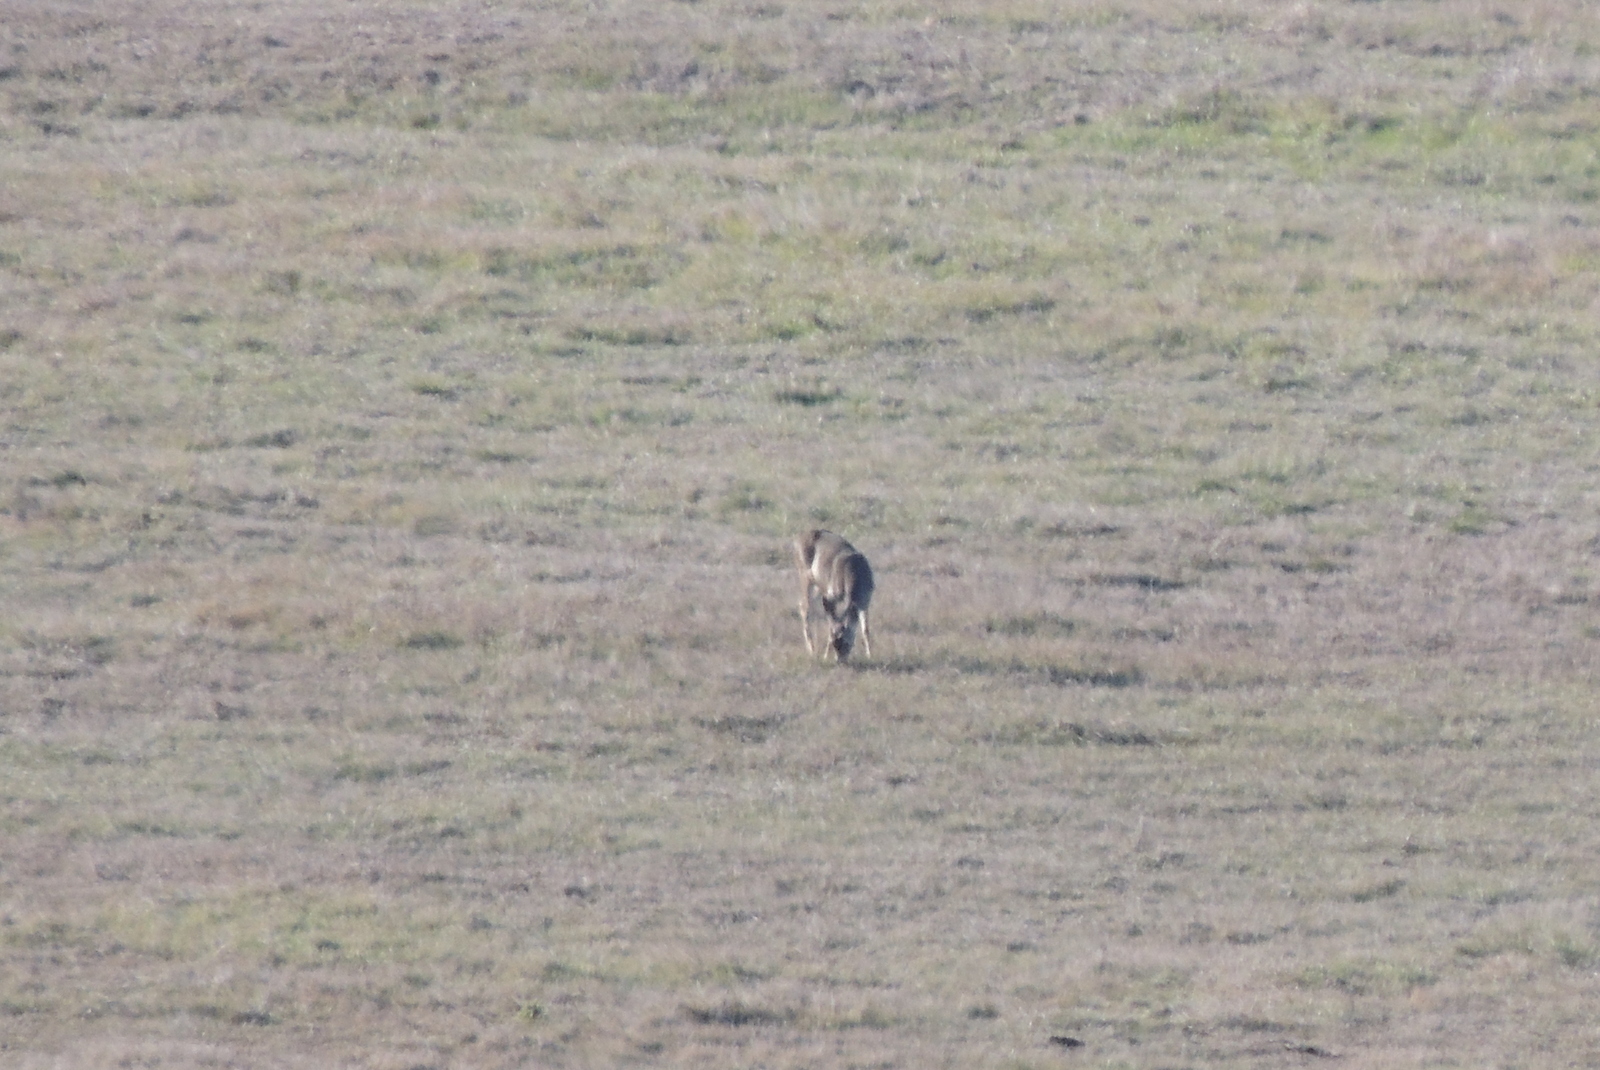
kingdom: Animalia
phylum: Chordata
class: Mammalia
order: Artiodactyla
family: Cervidae
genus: Odocoileus
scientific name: Odocoileus hemionus
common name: Mule deer
